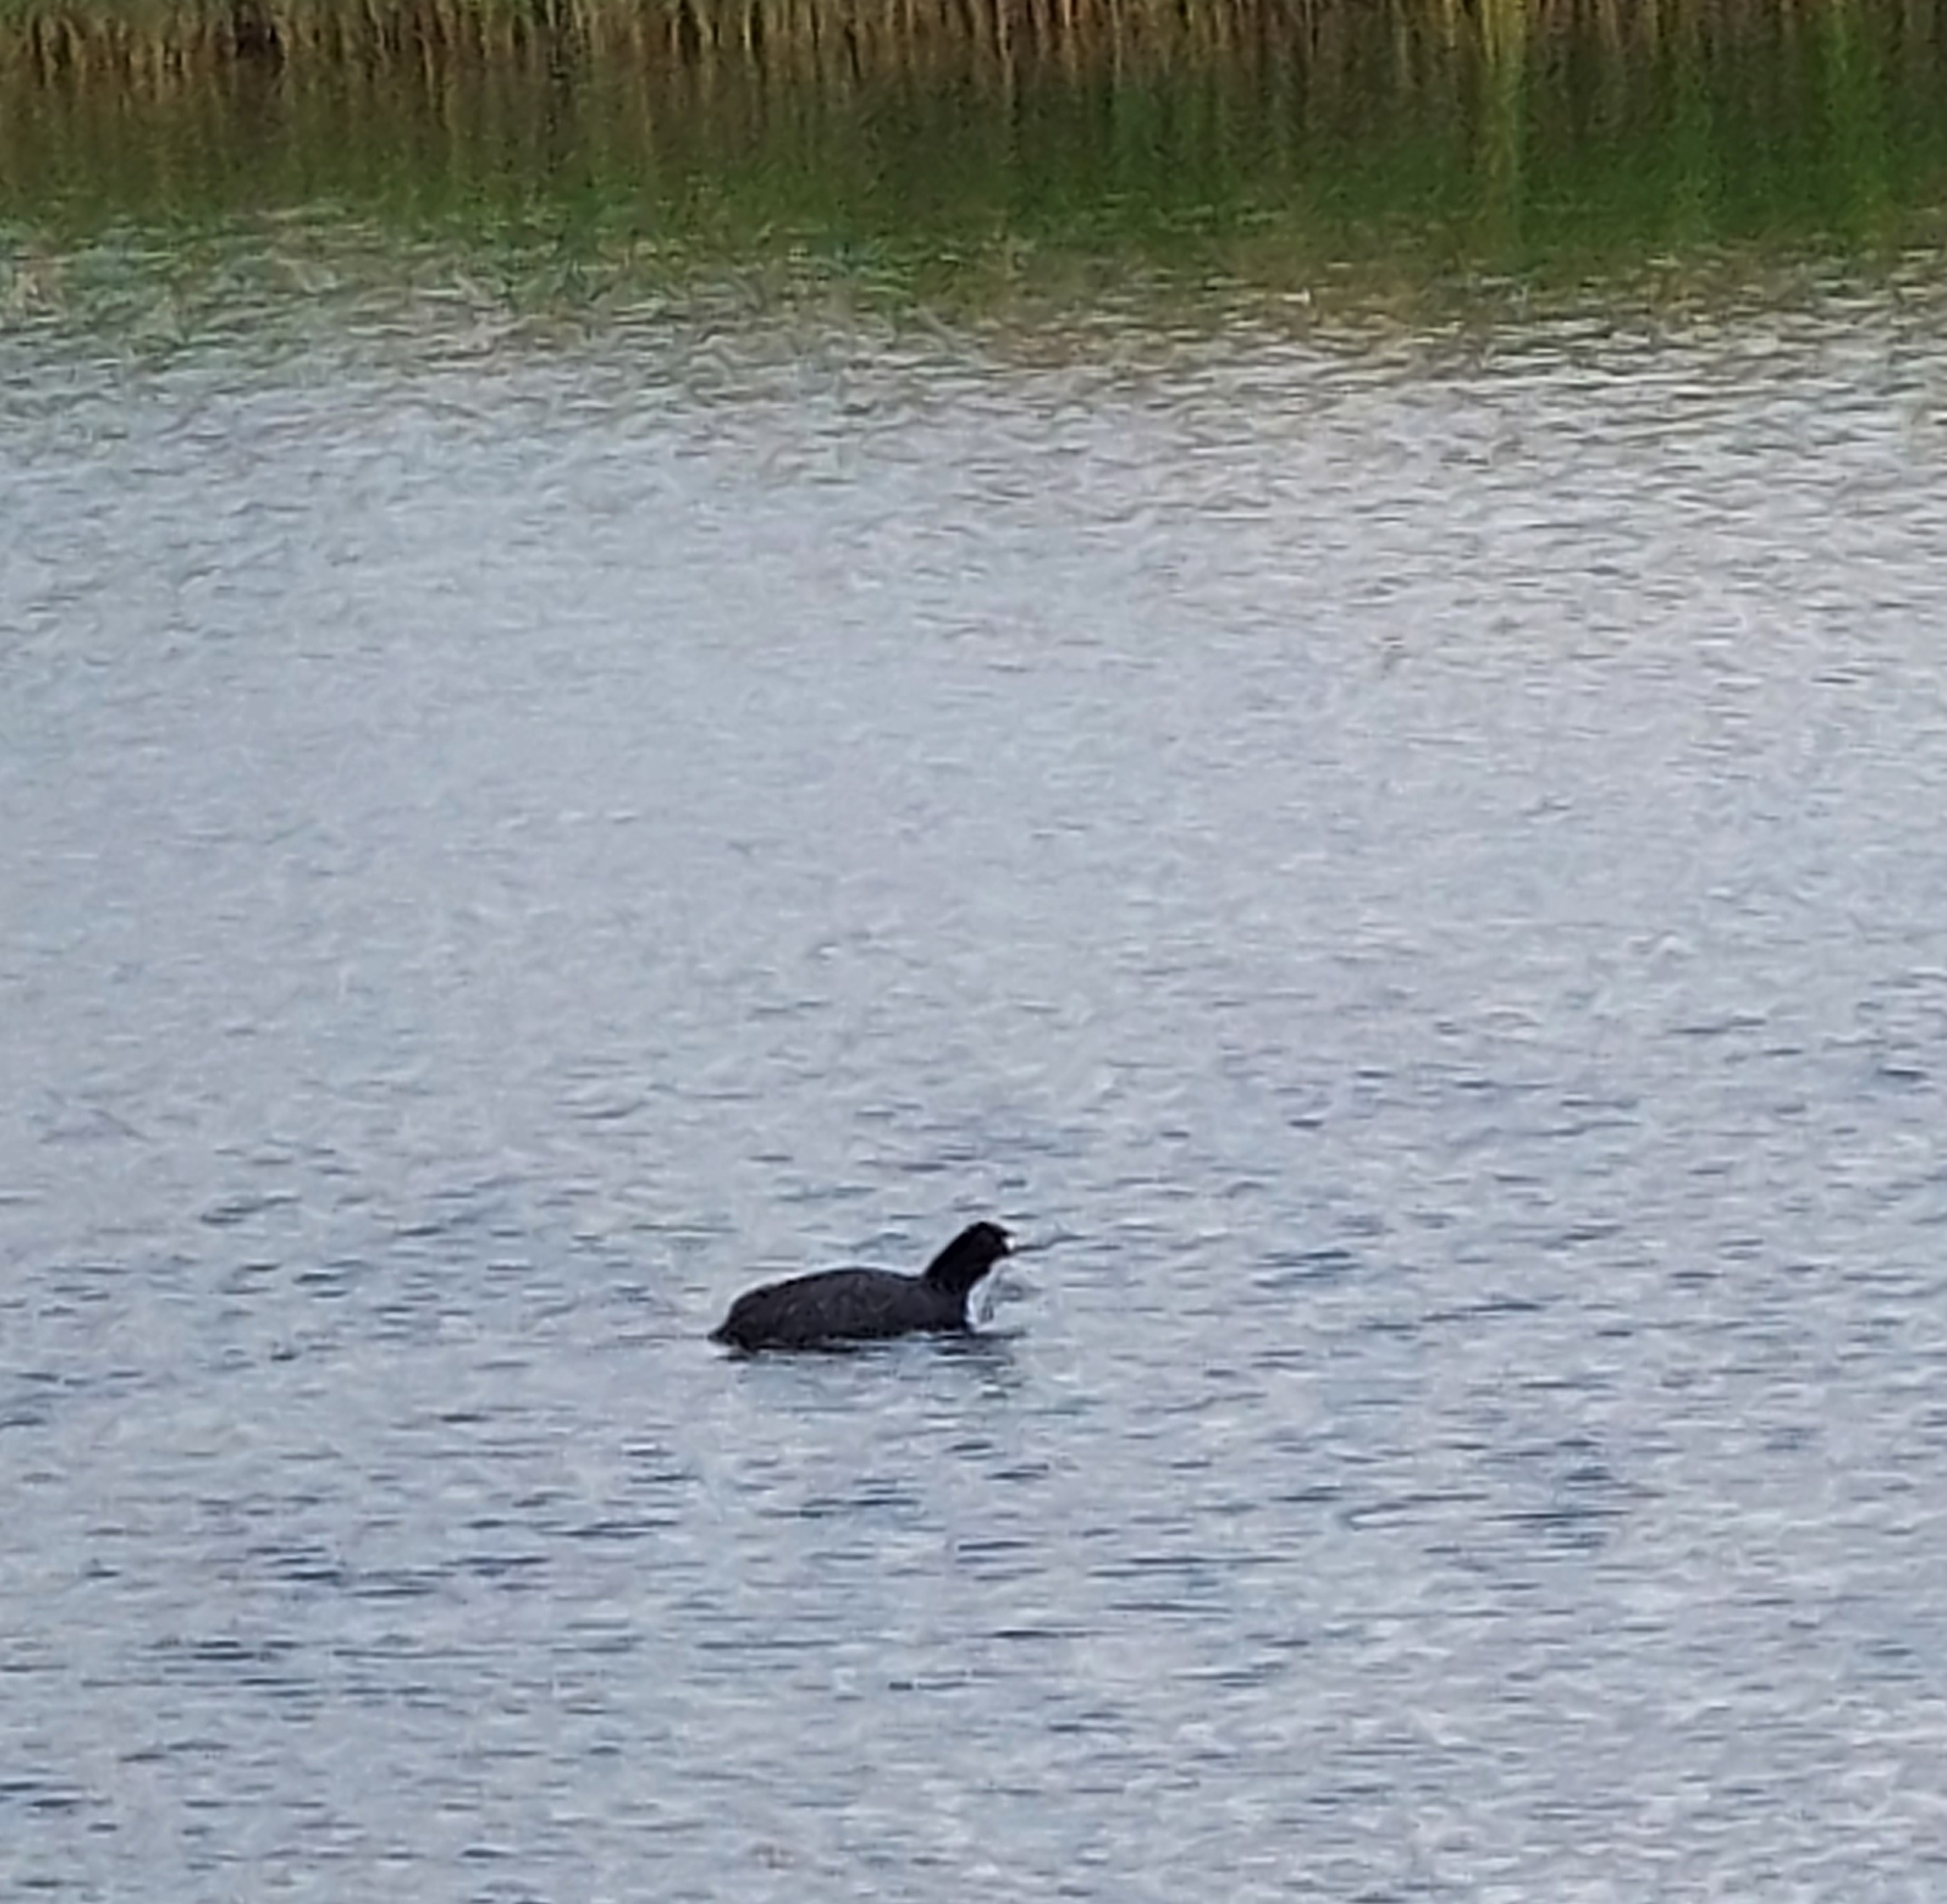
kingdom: Animalia
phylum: Chordata
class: Aves
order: Gruiformes
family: Rallidae
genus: Fulica
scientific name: Fulica atra
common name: Eurasian coot
